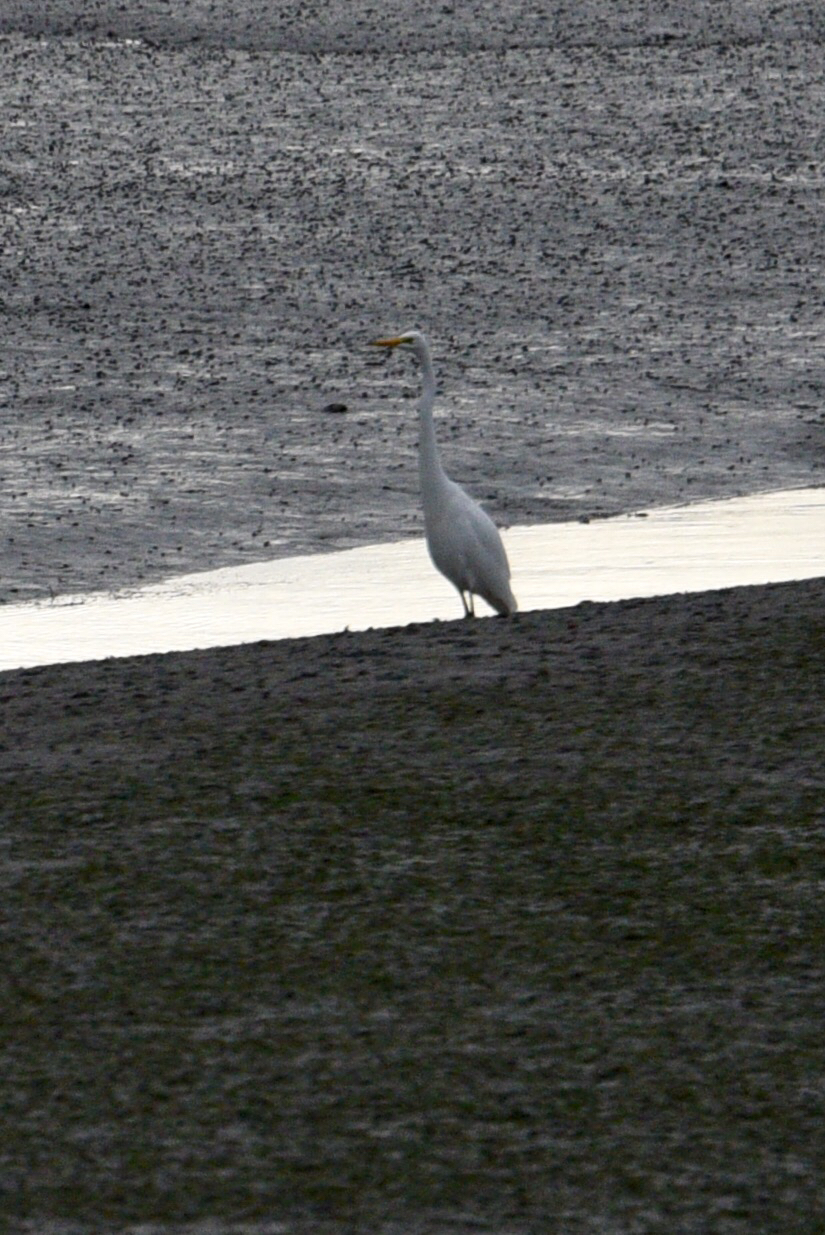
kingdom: Animalia
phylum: Chordata
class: Aves
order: Pelecaniformes
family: Ardeidae
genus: Ardea
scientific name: Ardea modesta
